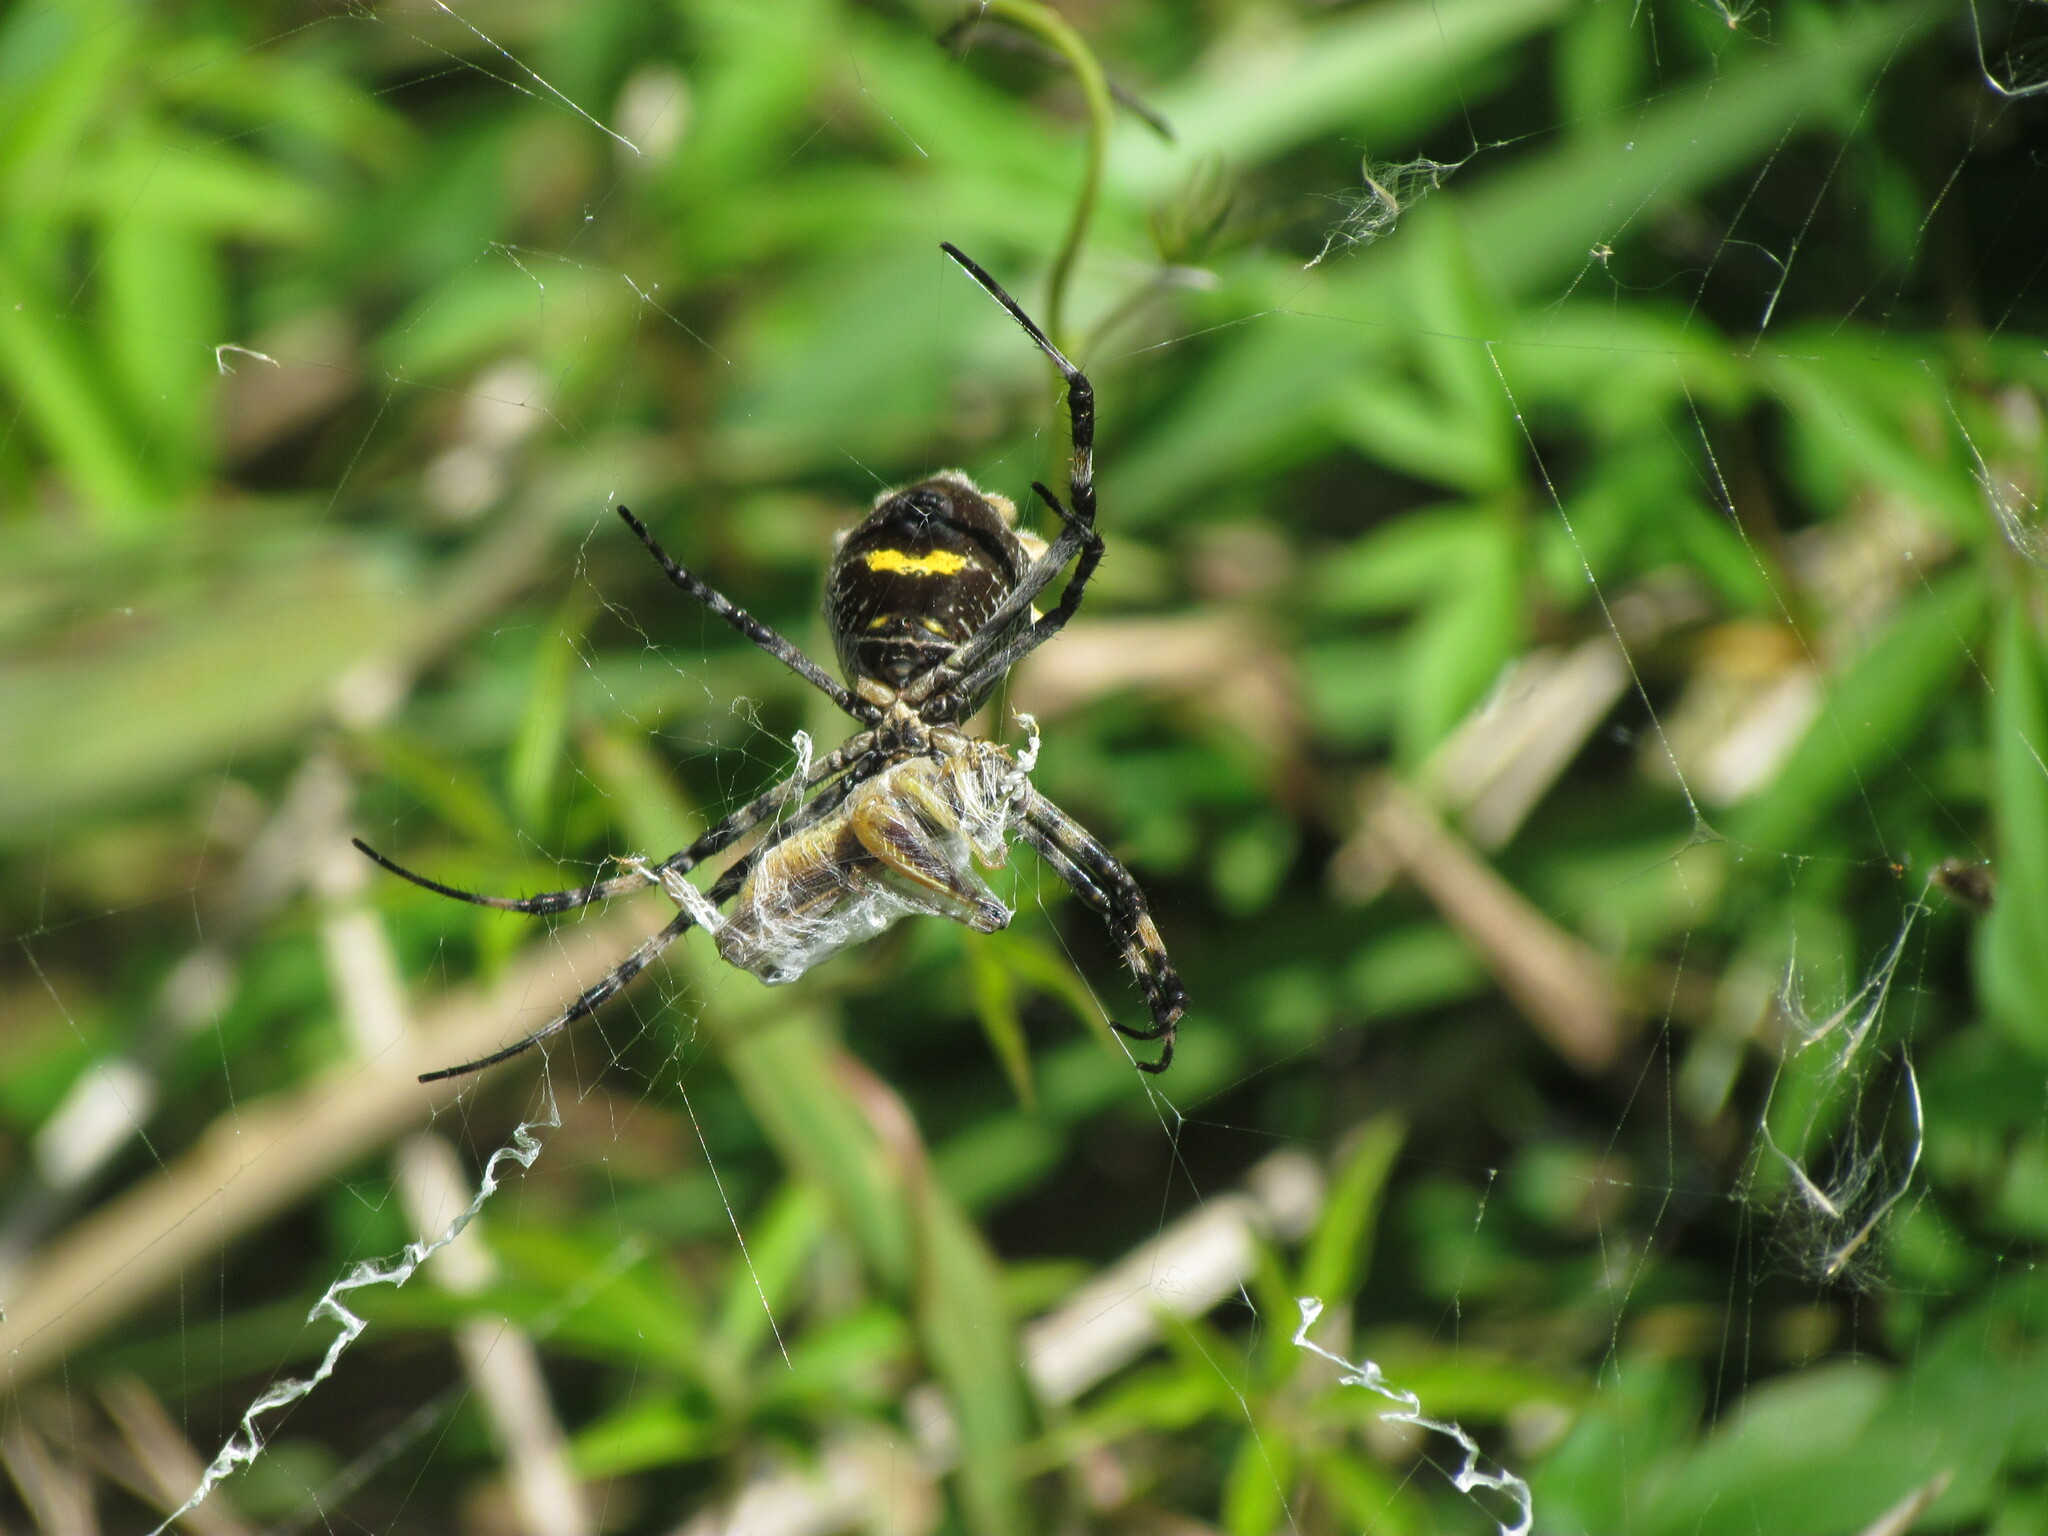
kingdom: Animalia
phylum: Arthropoda
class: Arachnida
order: Araneae
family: Araneidae
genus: Argiope
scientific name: Argiope argentata
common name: Orb weavers
